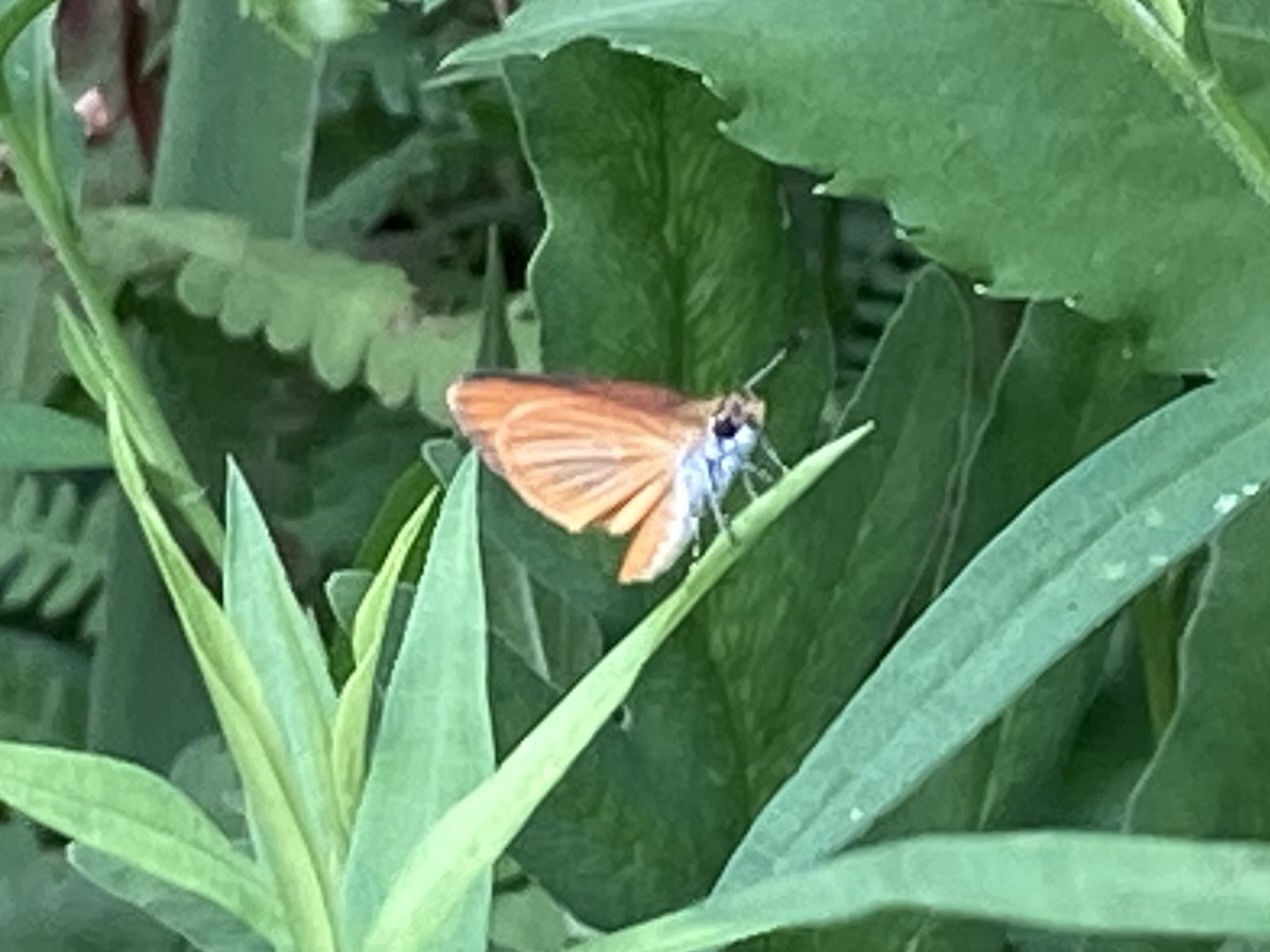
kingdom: Animalia
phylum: Arthropoda
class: Insecta
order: Lepidoptera
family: Hesperiidae
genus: Ancyloxypha
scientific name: Ancyloxypha numitor
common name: Least skipper
